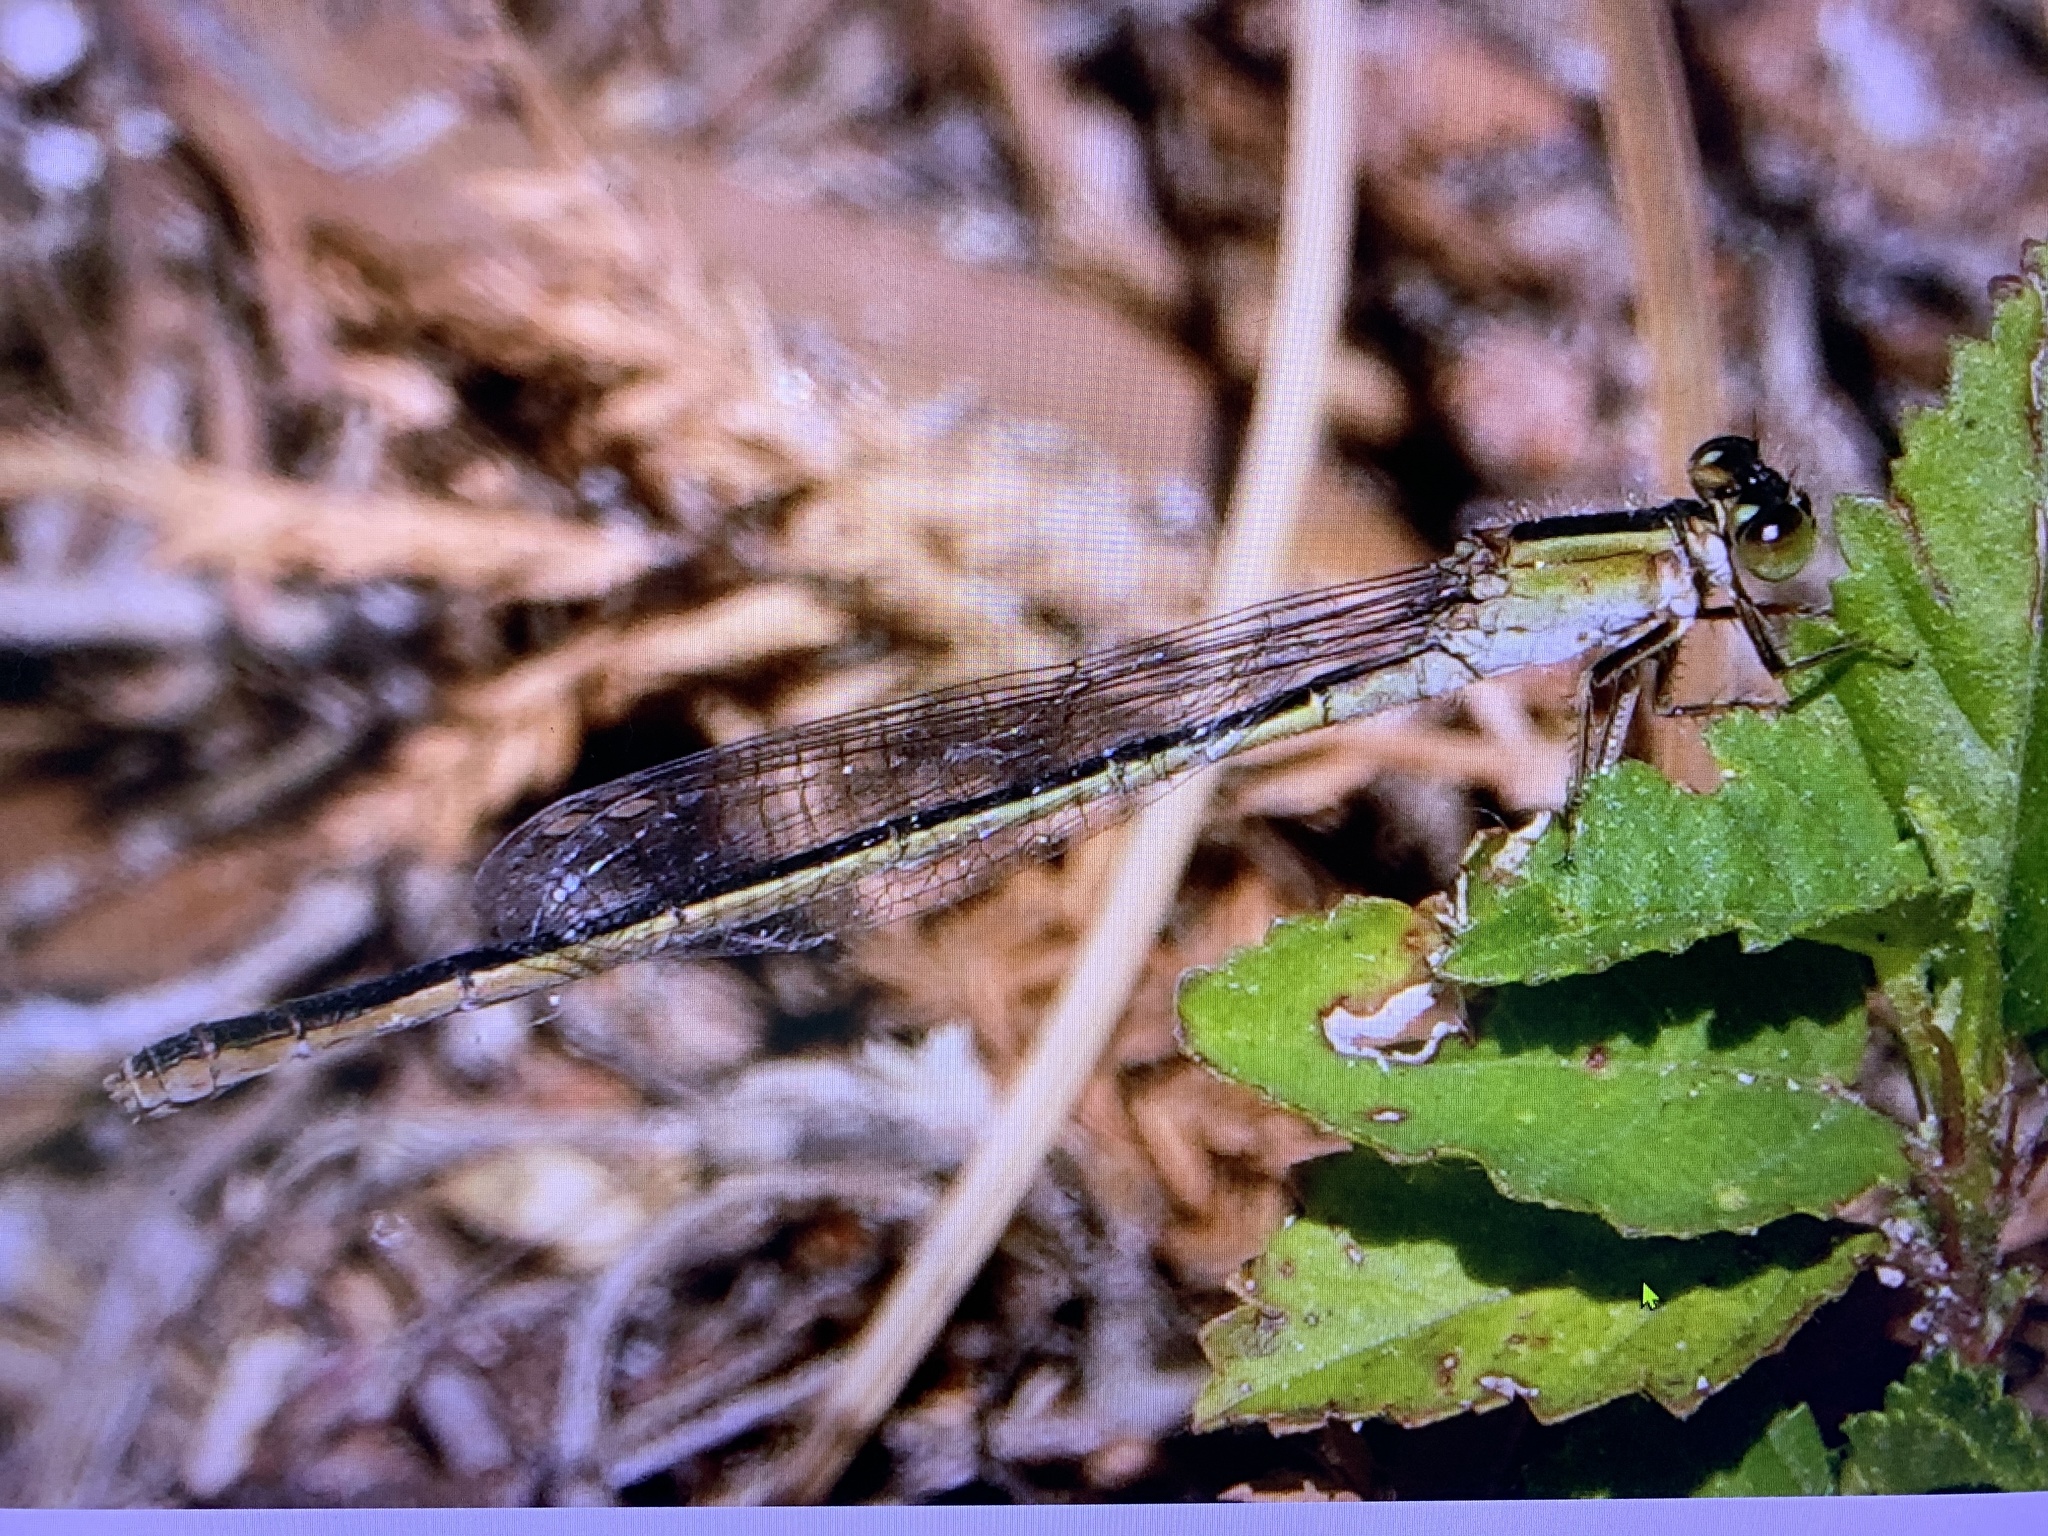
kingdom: Animalia
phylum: Arthropoda
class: Insecta
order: Odonata
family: Coenagrionidae
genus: Ischnura
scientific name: Ischnura ramburii
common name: Rambur's forktail
